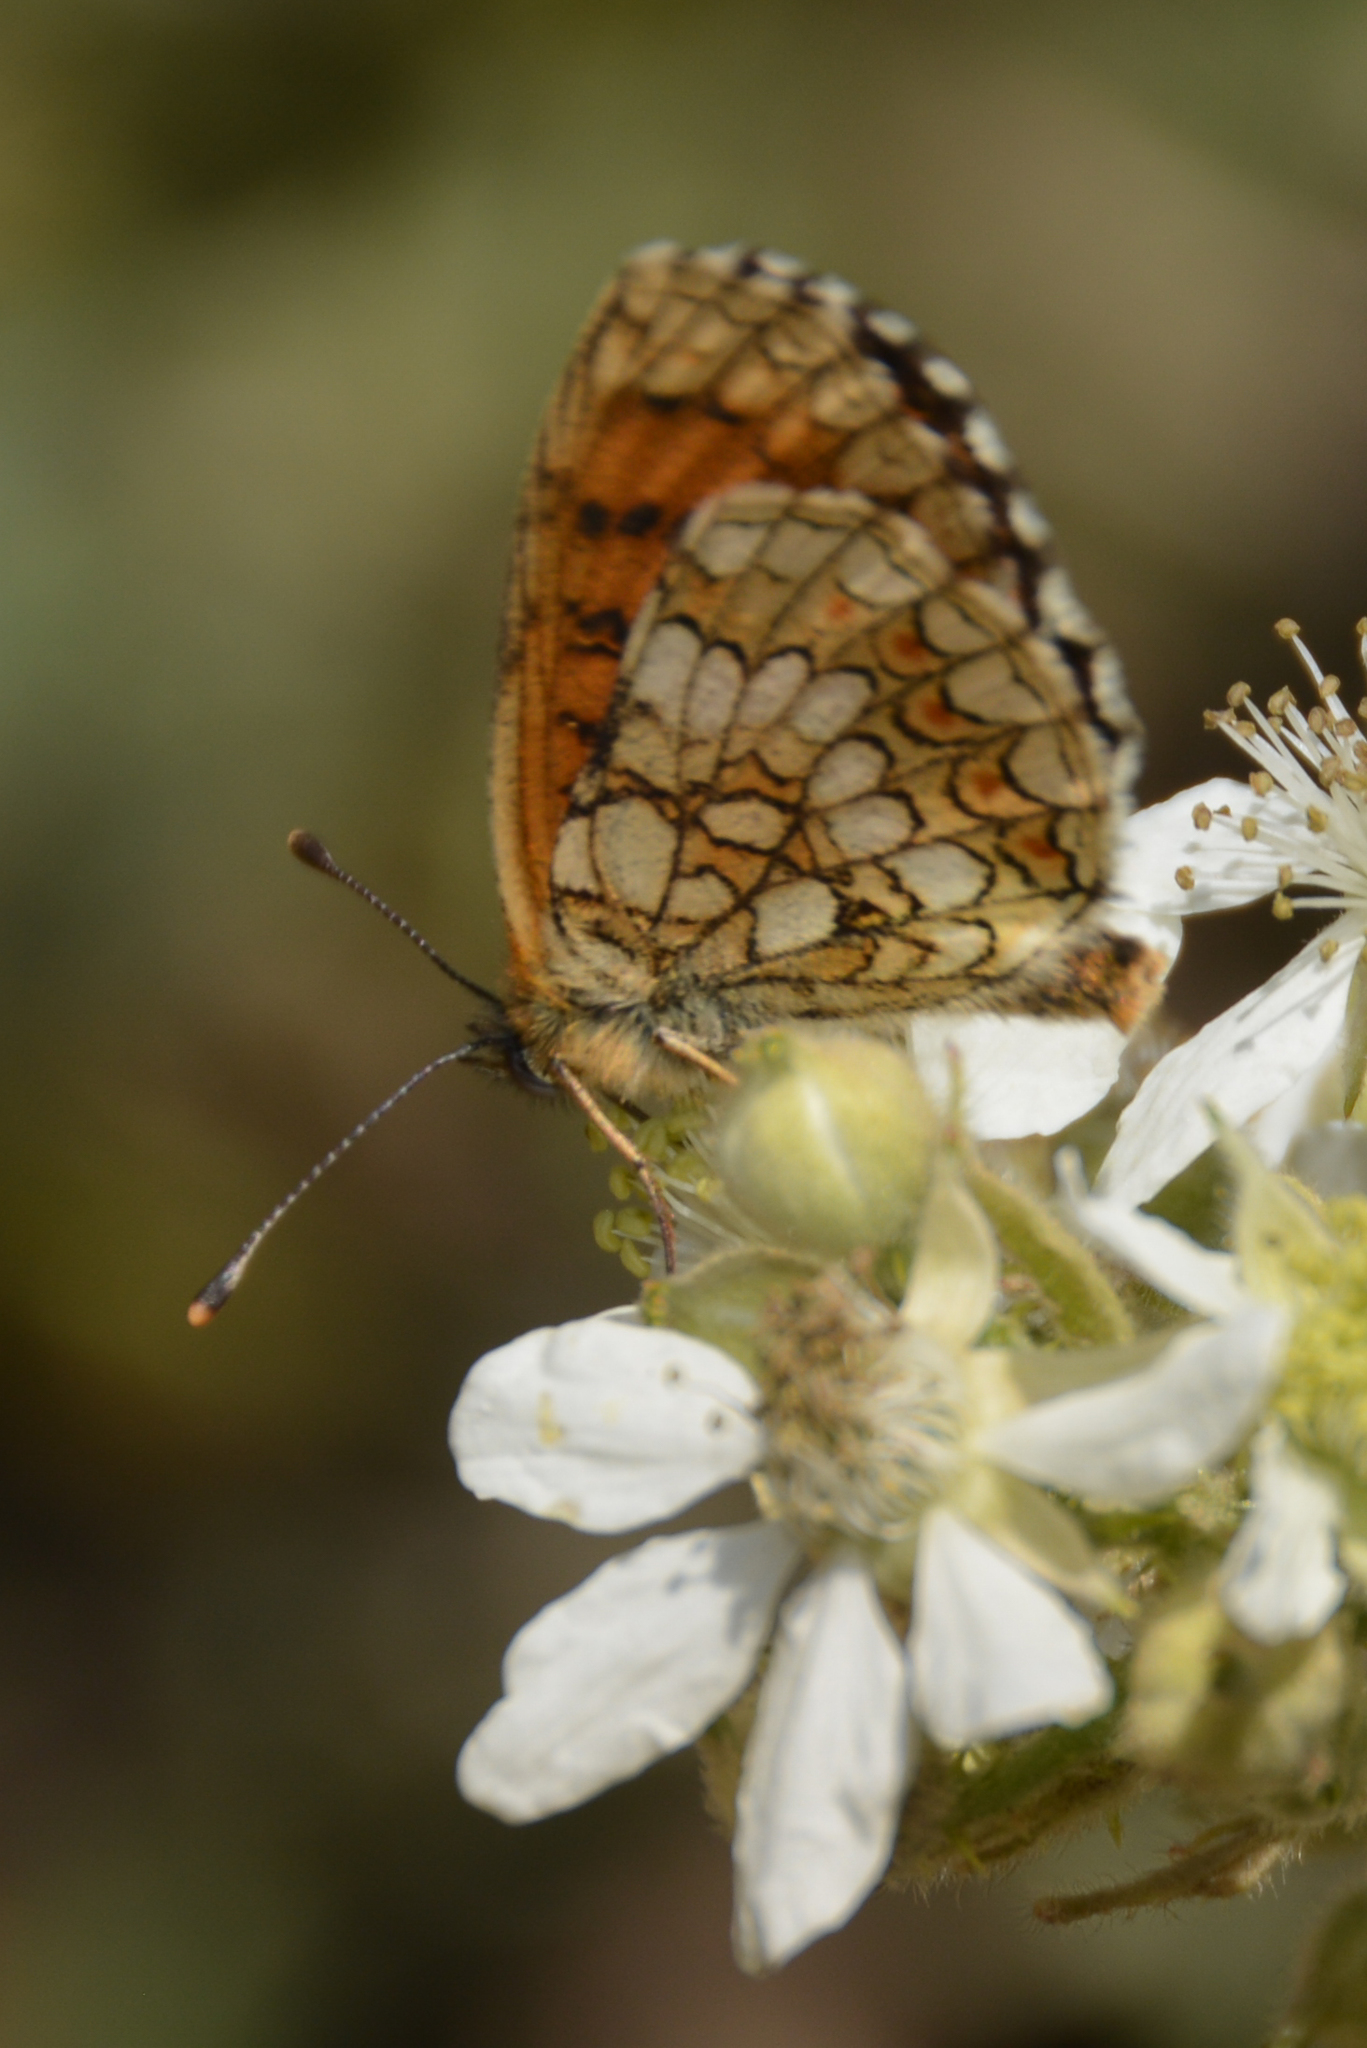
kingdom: Animalia
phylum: Arthropoda
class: Insecta
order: Lepidoptera
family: Nymphalidae
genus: Mellicta
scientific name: Mellicta athalia
